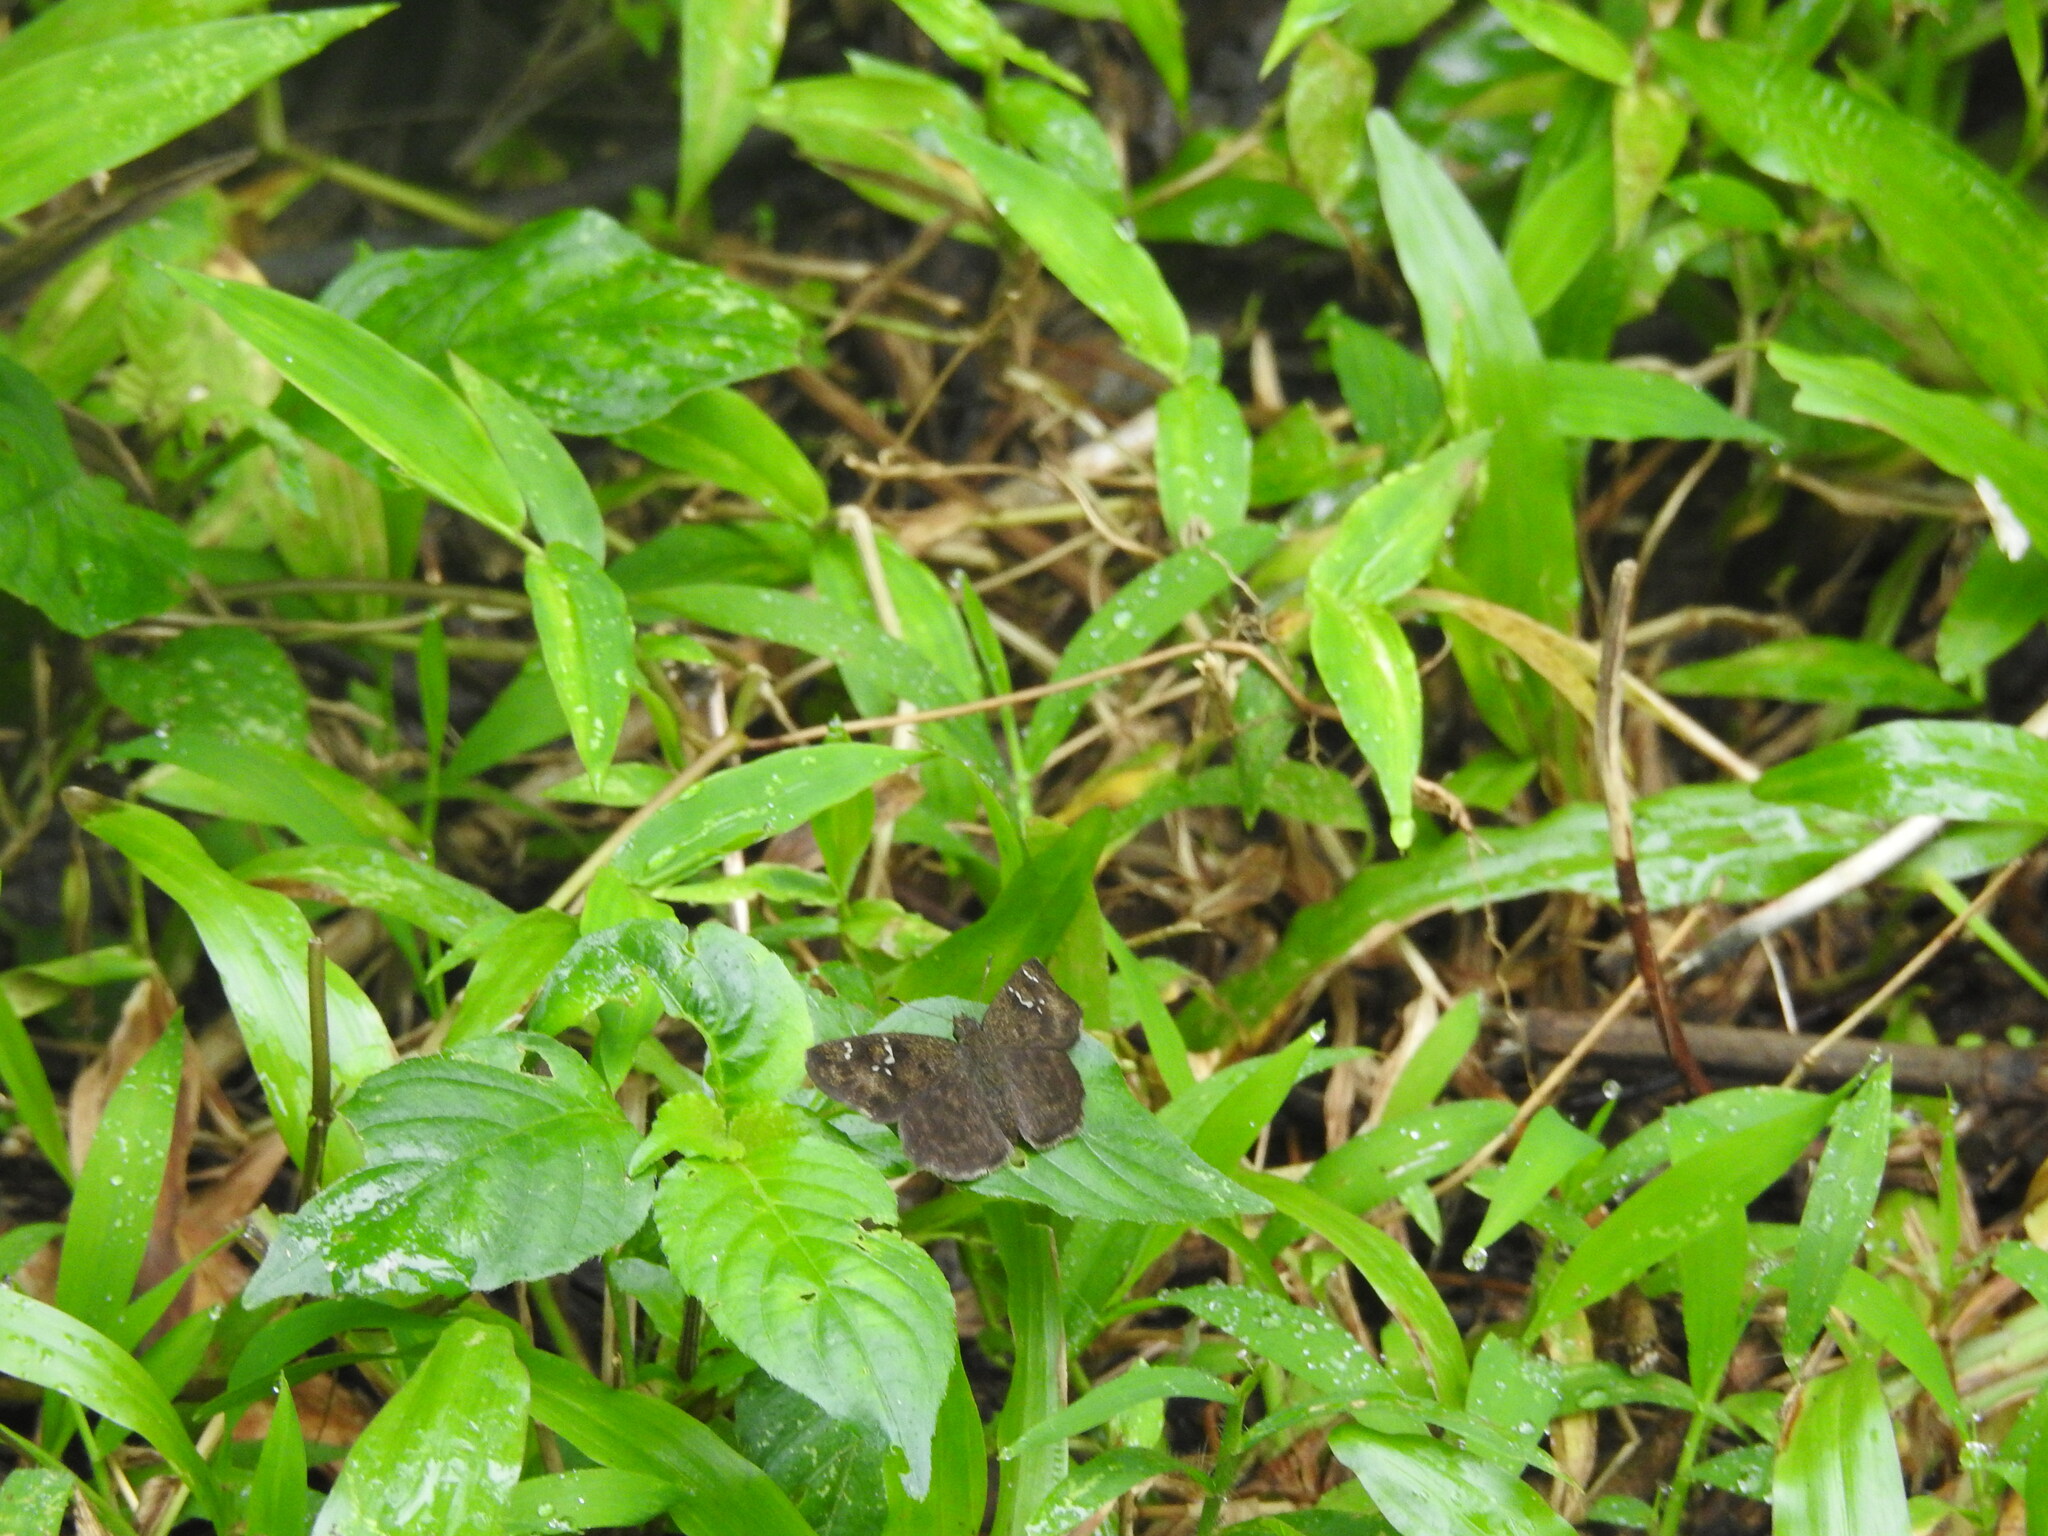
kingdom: Animalia
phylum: Arthropoda
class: Insecta
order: Lepidoptera
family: Hesperiidae
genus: Sarangesa
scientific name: Sarangesa dasahara
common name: Common small flat
